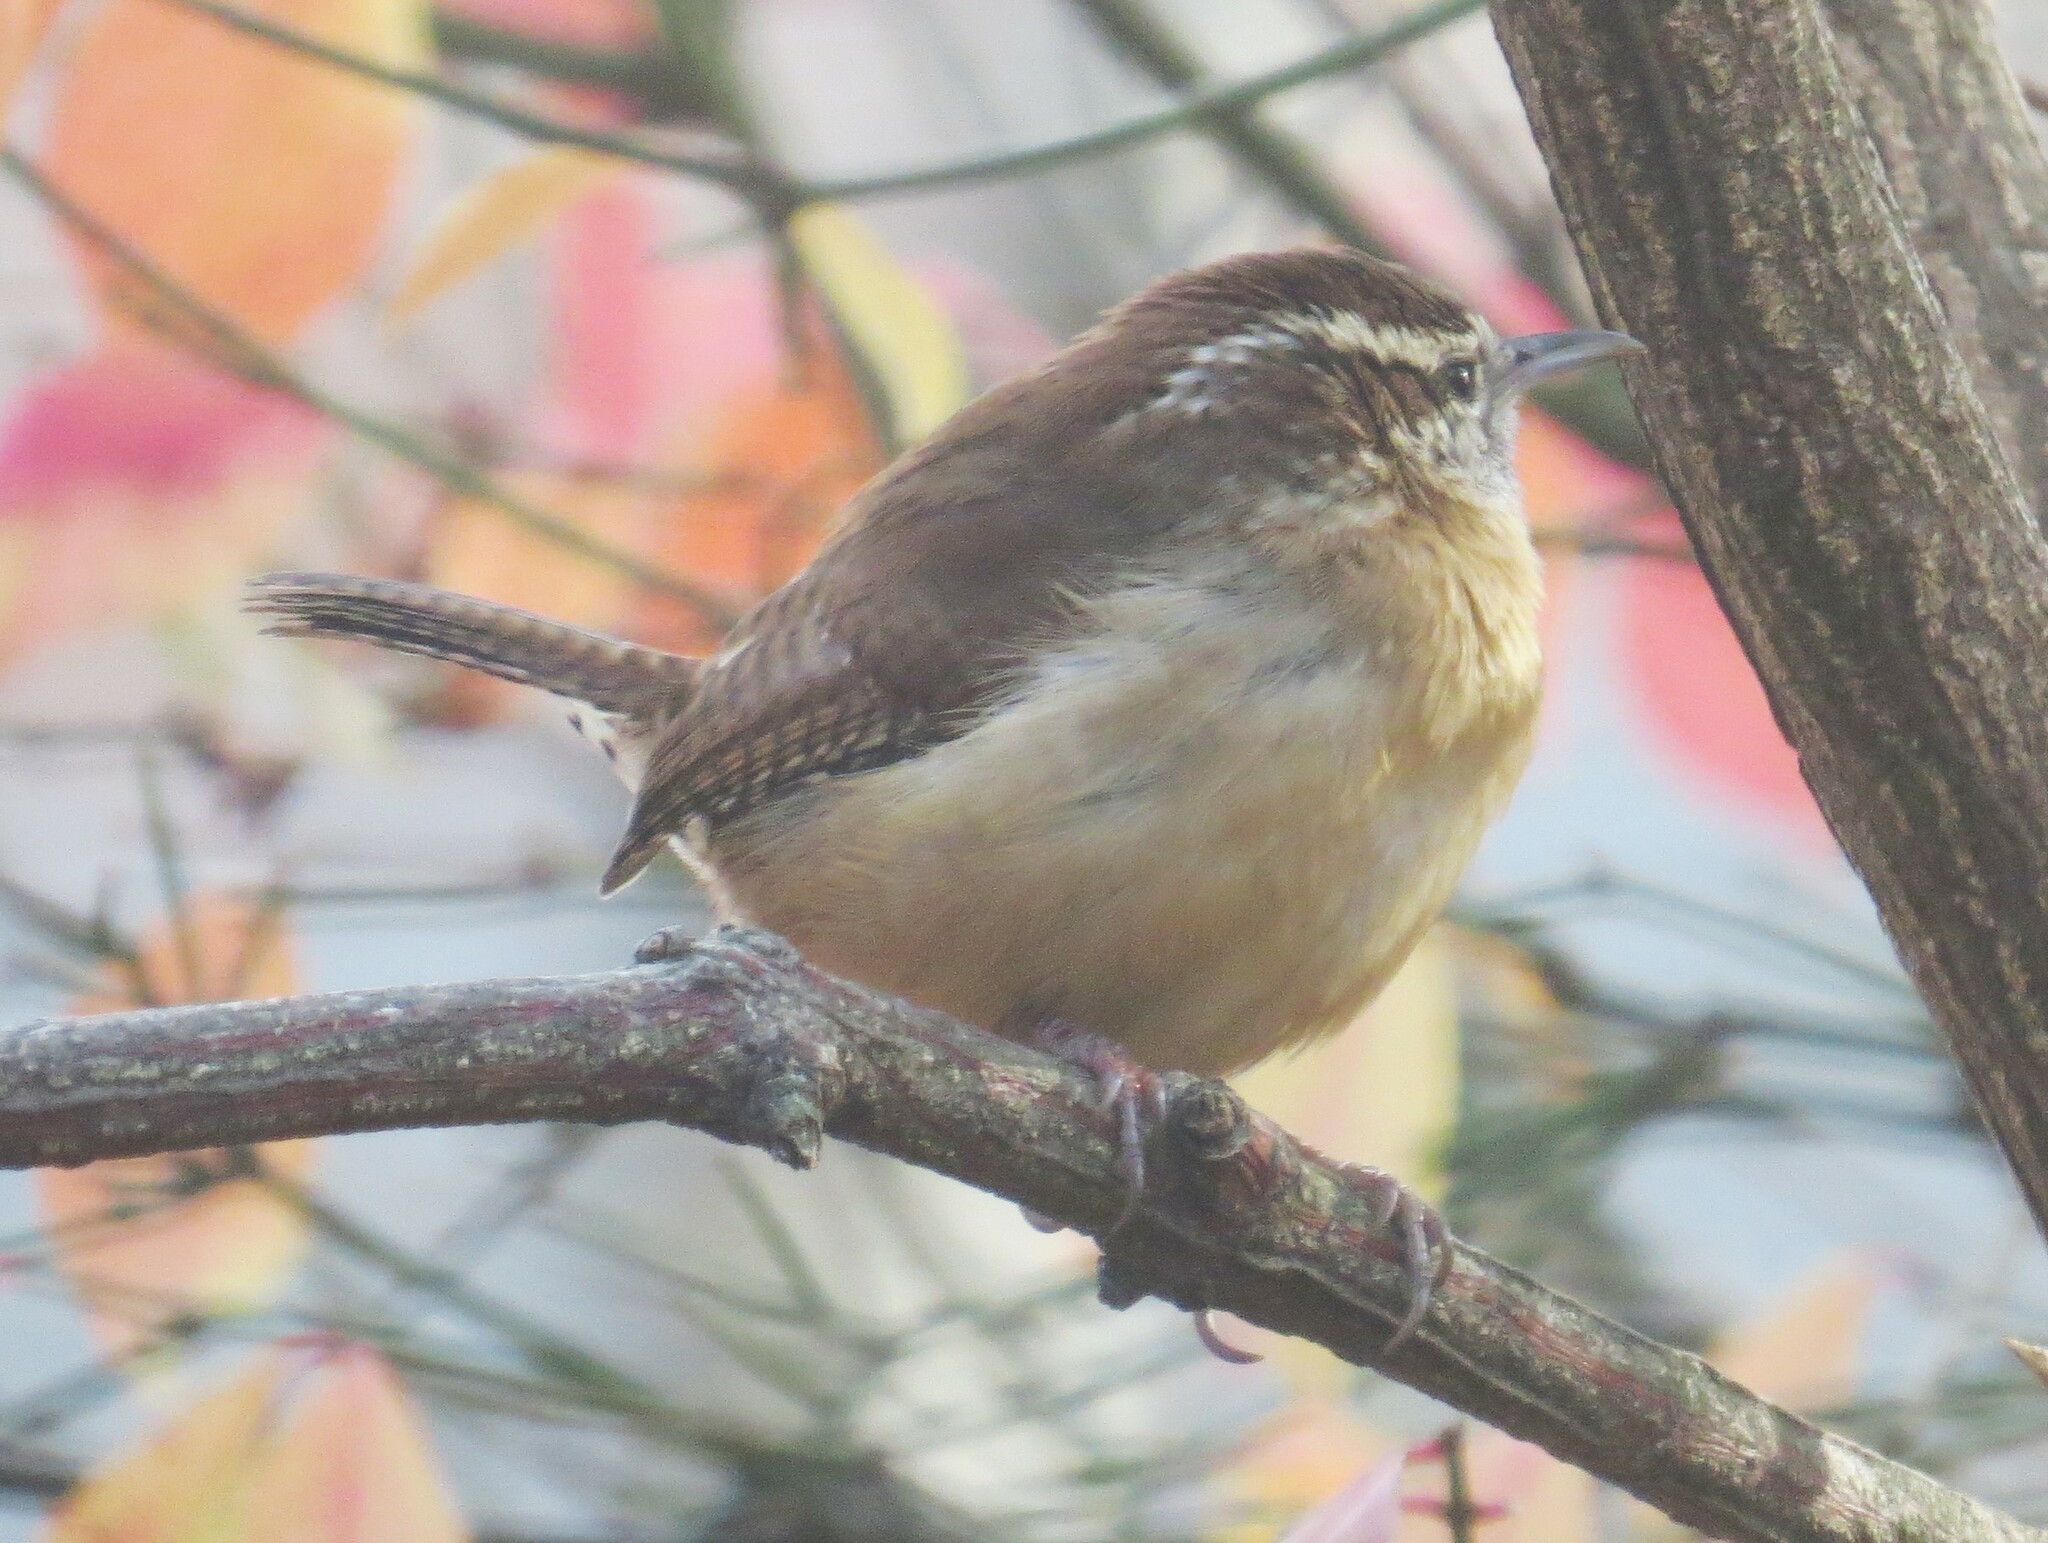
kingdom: Animalia
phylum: Chordata
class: Aves
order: Passeriformes
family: Troglodytidae
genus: Thryothorus
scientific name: Thryothorus ludovicianus
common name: Carolina wren
